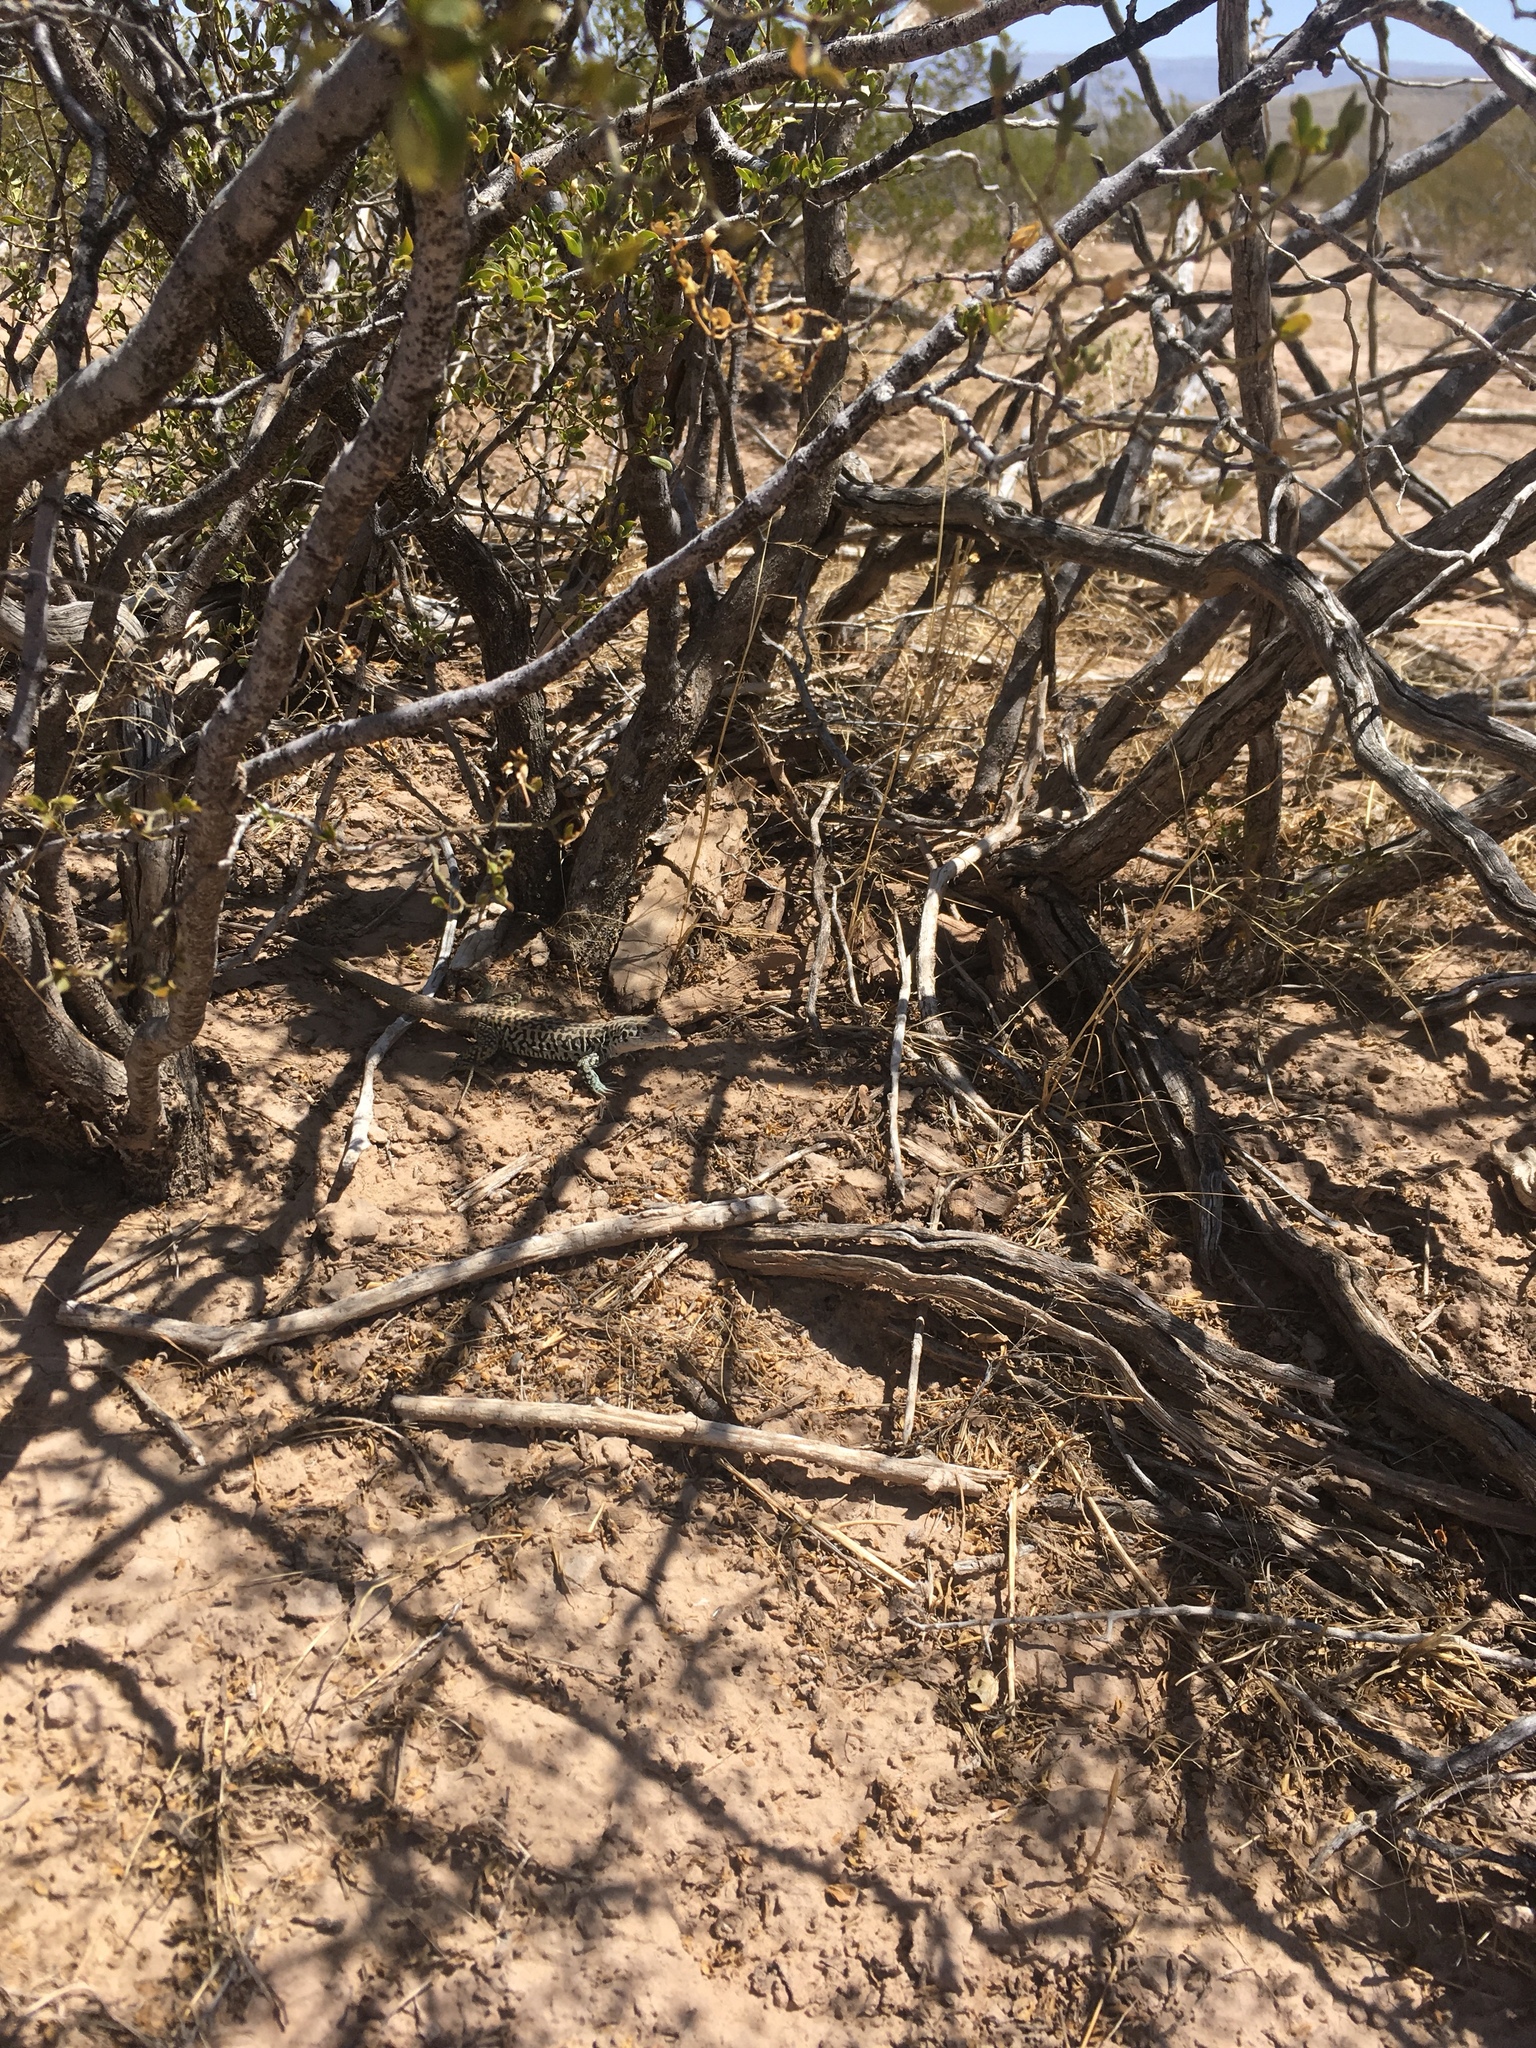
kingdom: Animalia
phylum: Chordata
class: Squamata
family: Teiidae
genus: Aspidoscelis
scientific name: Aspidoscelis tesselatus
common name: Common checkered whiptail [tesselata]
